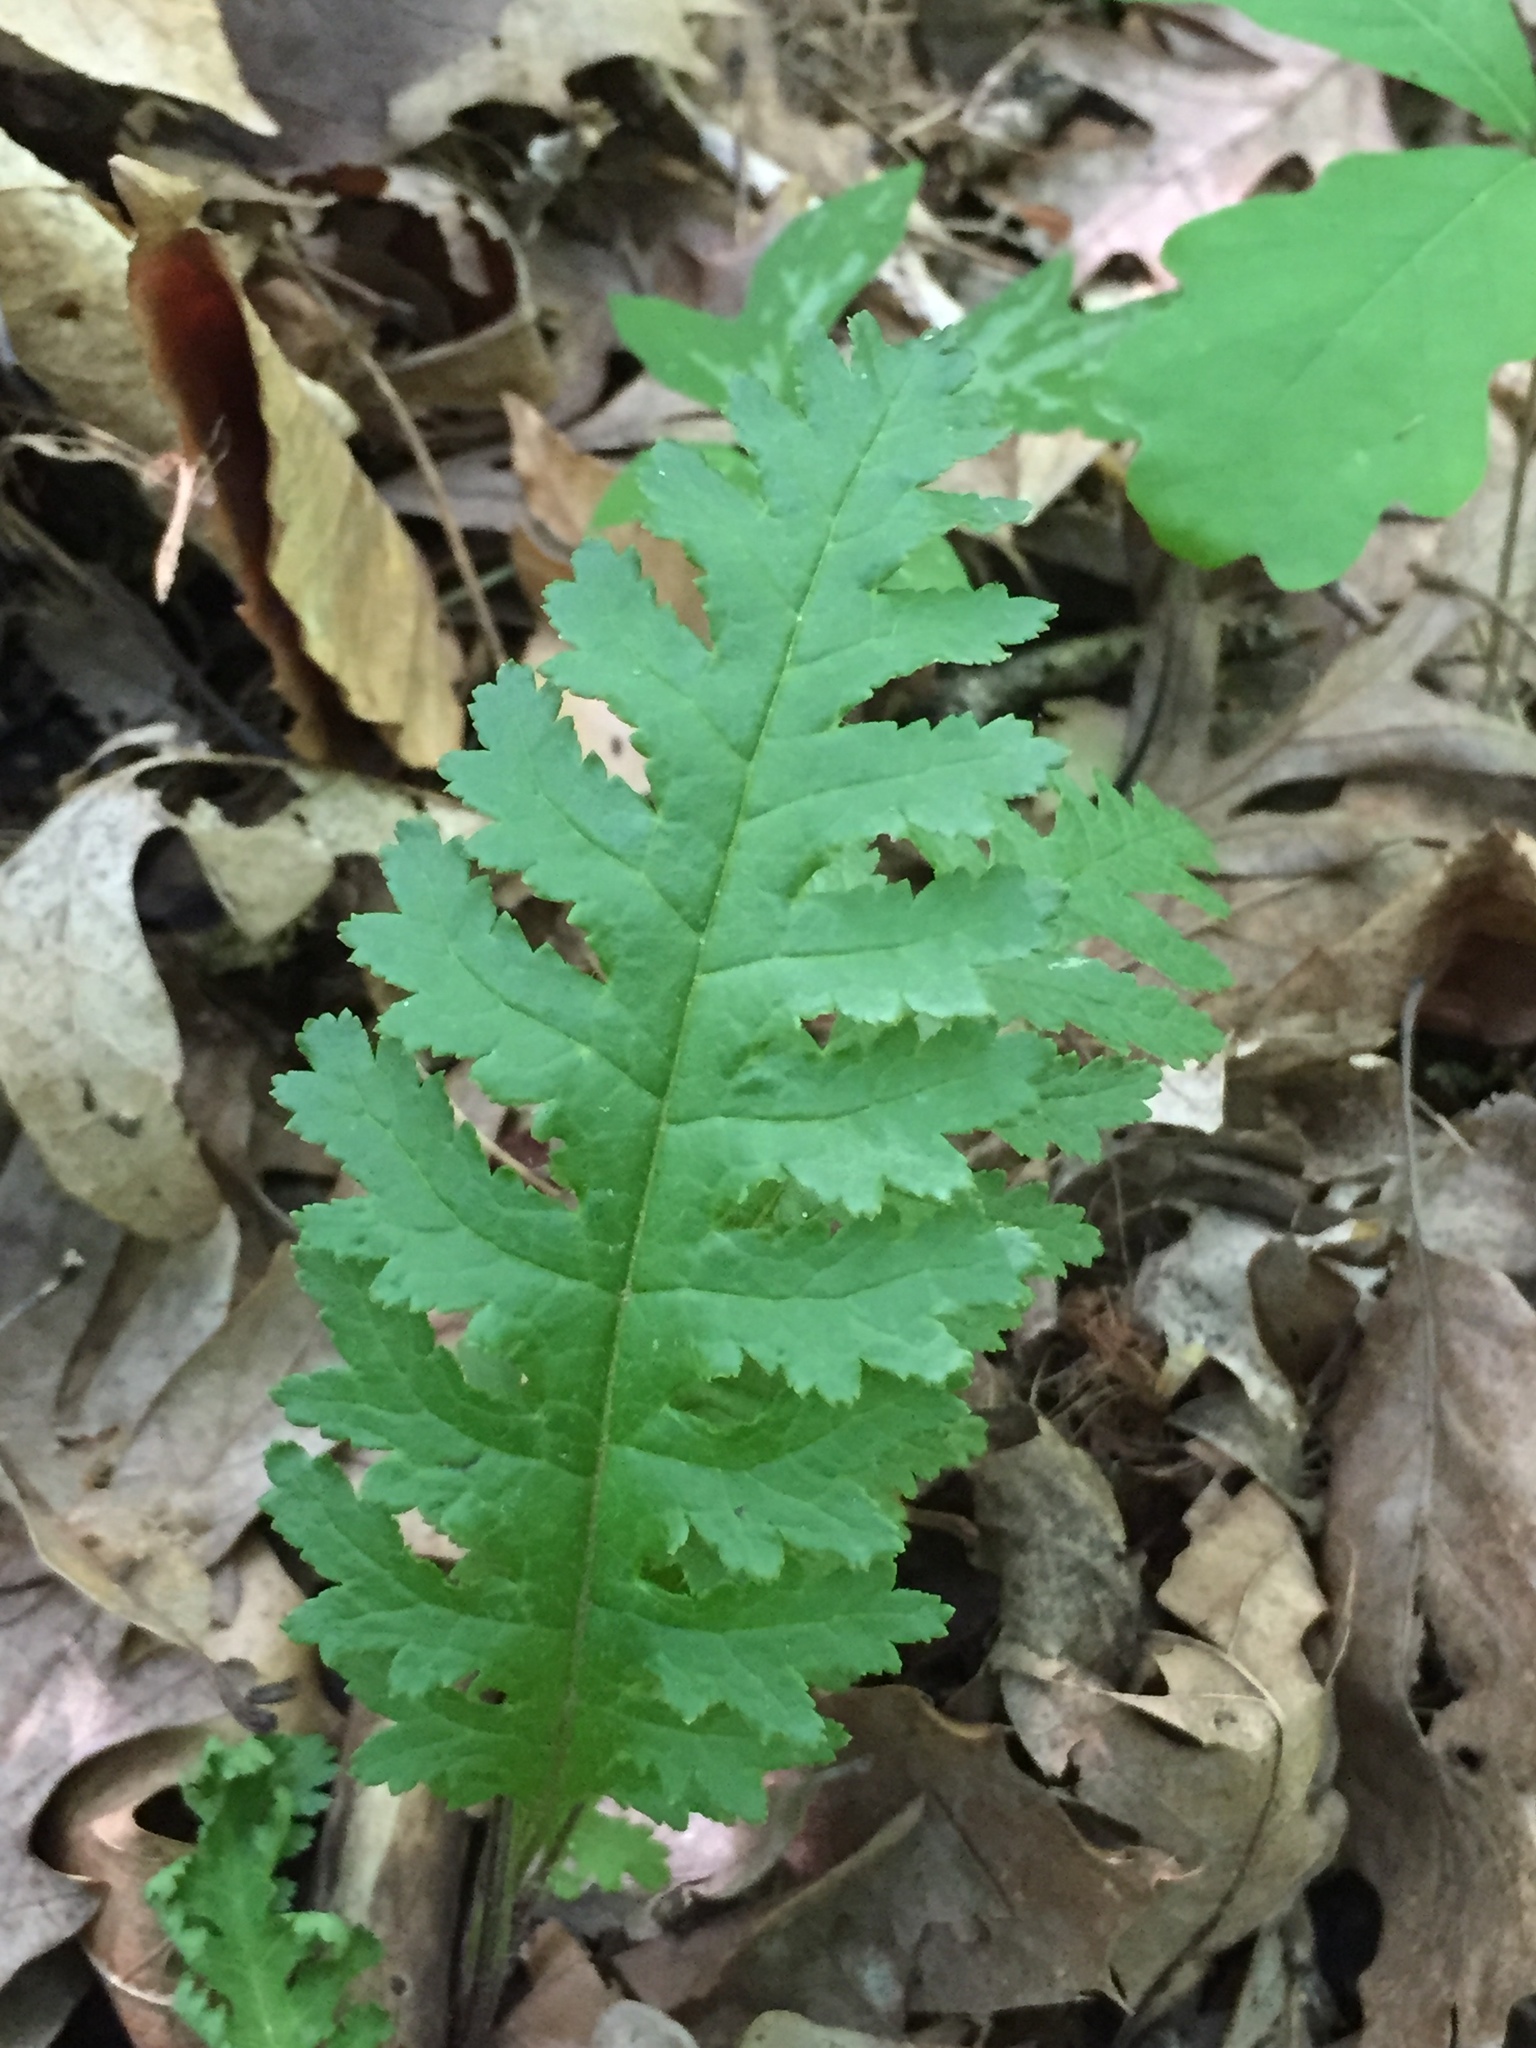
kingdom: Plantae
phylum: Tracheophyta
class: Magnoliopsida
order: Lamiales
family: Orobanchaceae
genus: Pedicularis
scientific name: Pedicularis canadensis
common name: Early lousewort
